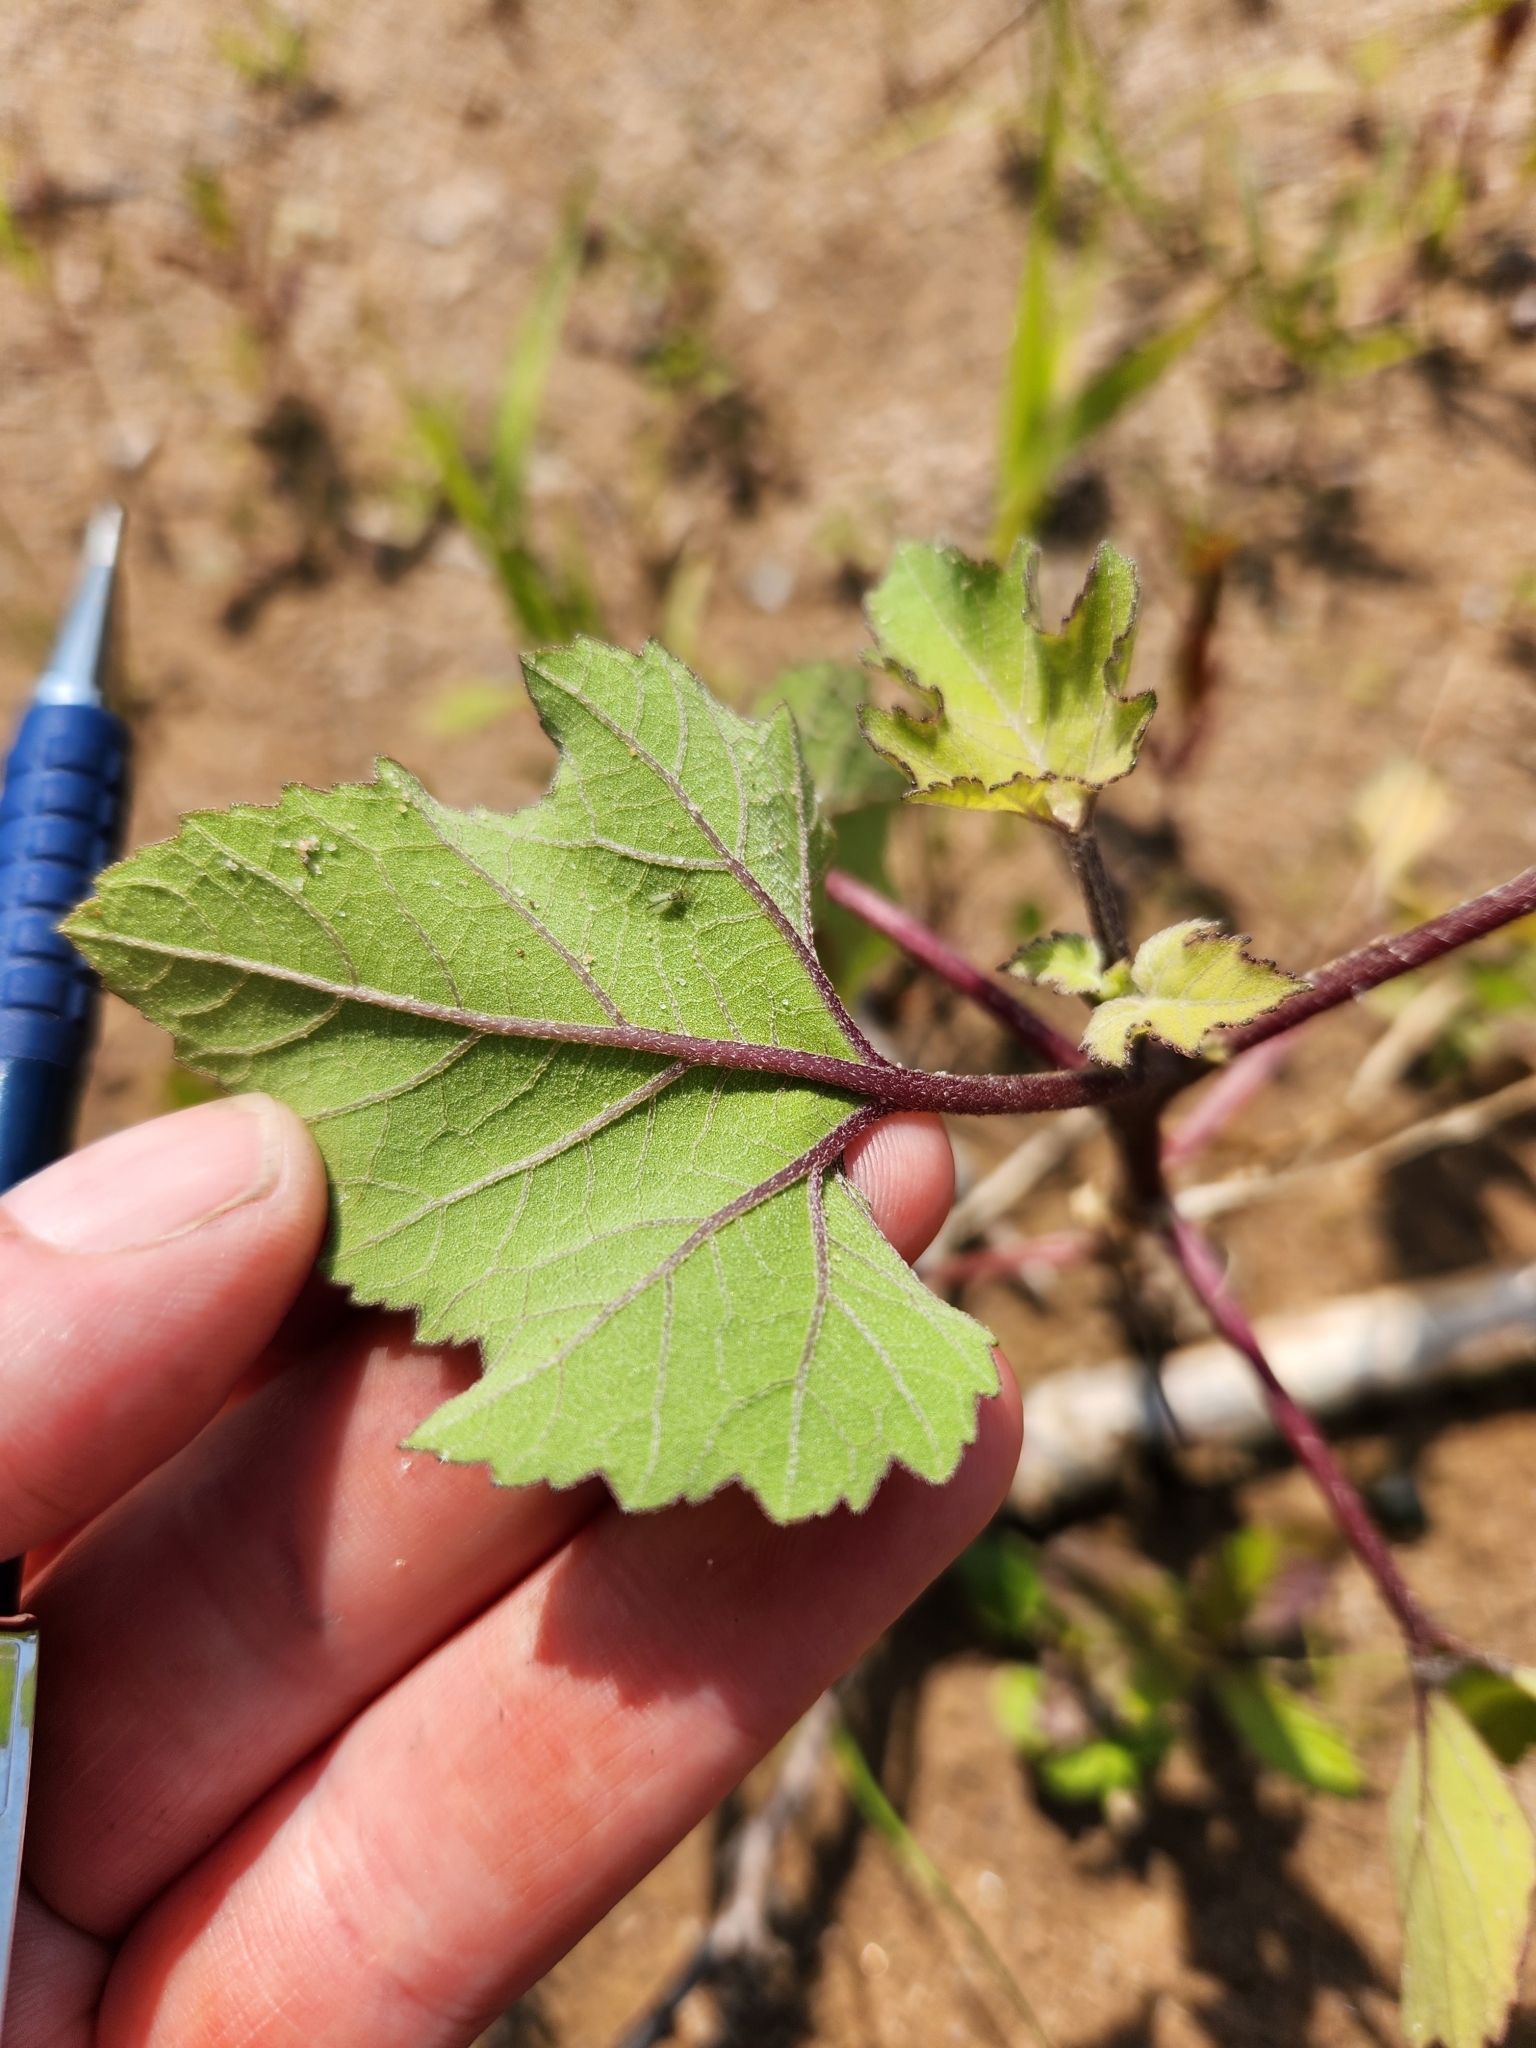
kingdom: Plantae
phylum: Tracheophyta
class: Magnoliopsida
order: Asterales
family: Asteraceae
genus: Xanthium
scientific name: Xanthium strumarium
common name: Rough cocklebur
